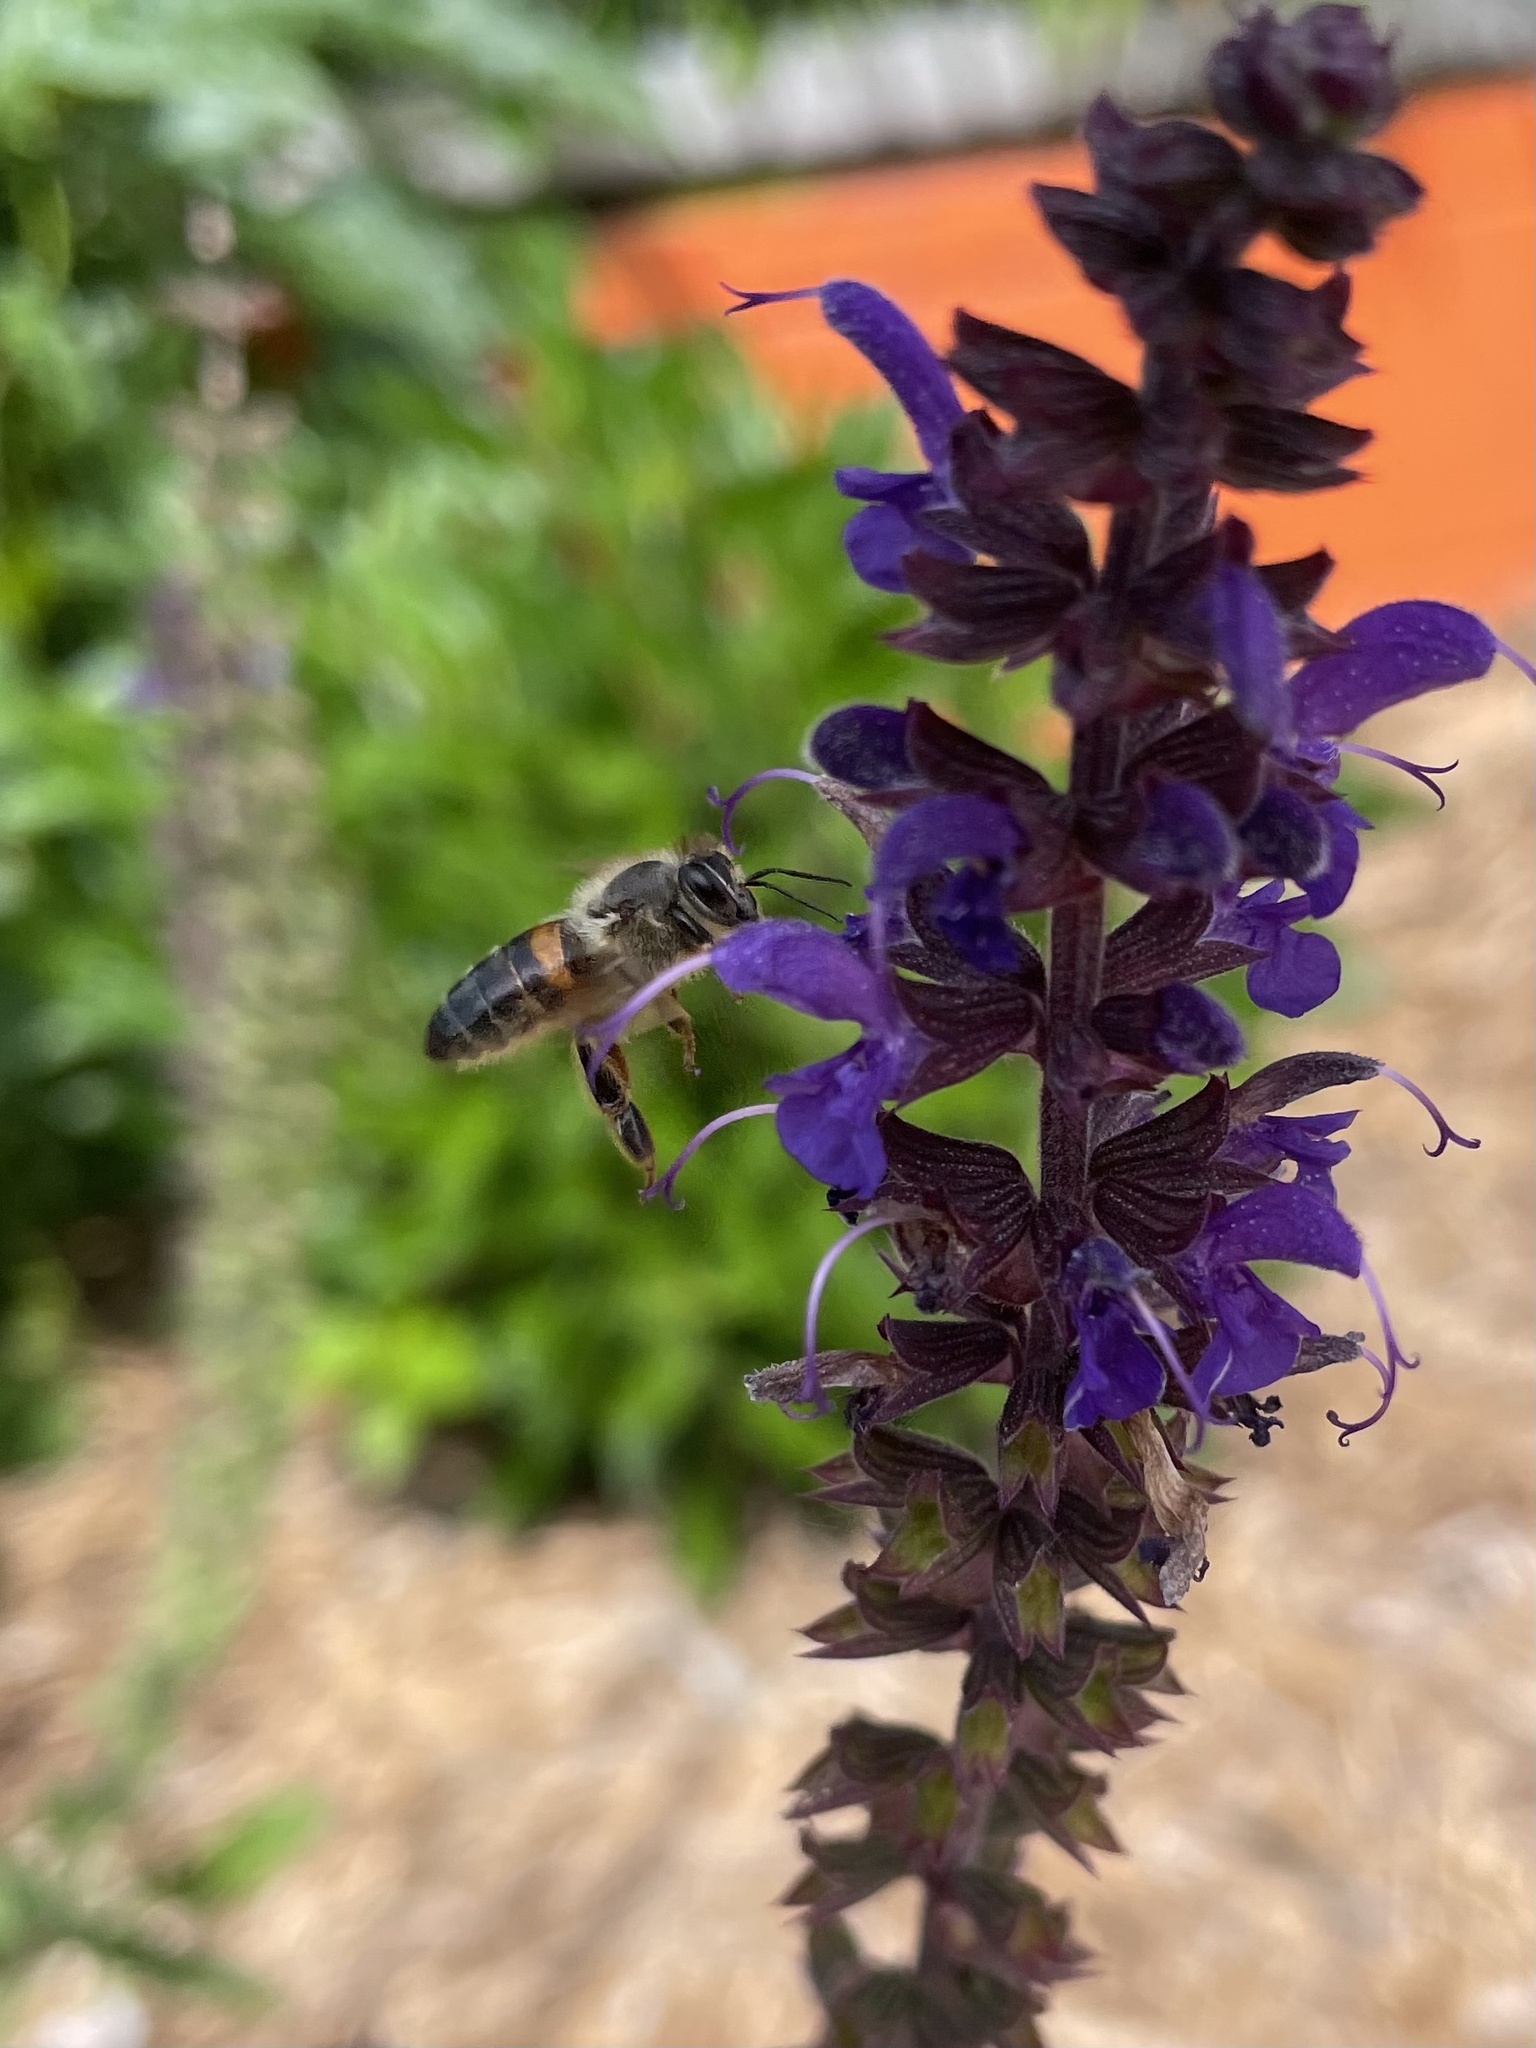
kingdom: Animalia
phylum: Arthropoda
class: Insecta
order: Hymenoptera
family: Apidae
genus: Apis
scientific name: Apis mellifera
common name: Honey bee
